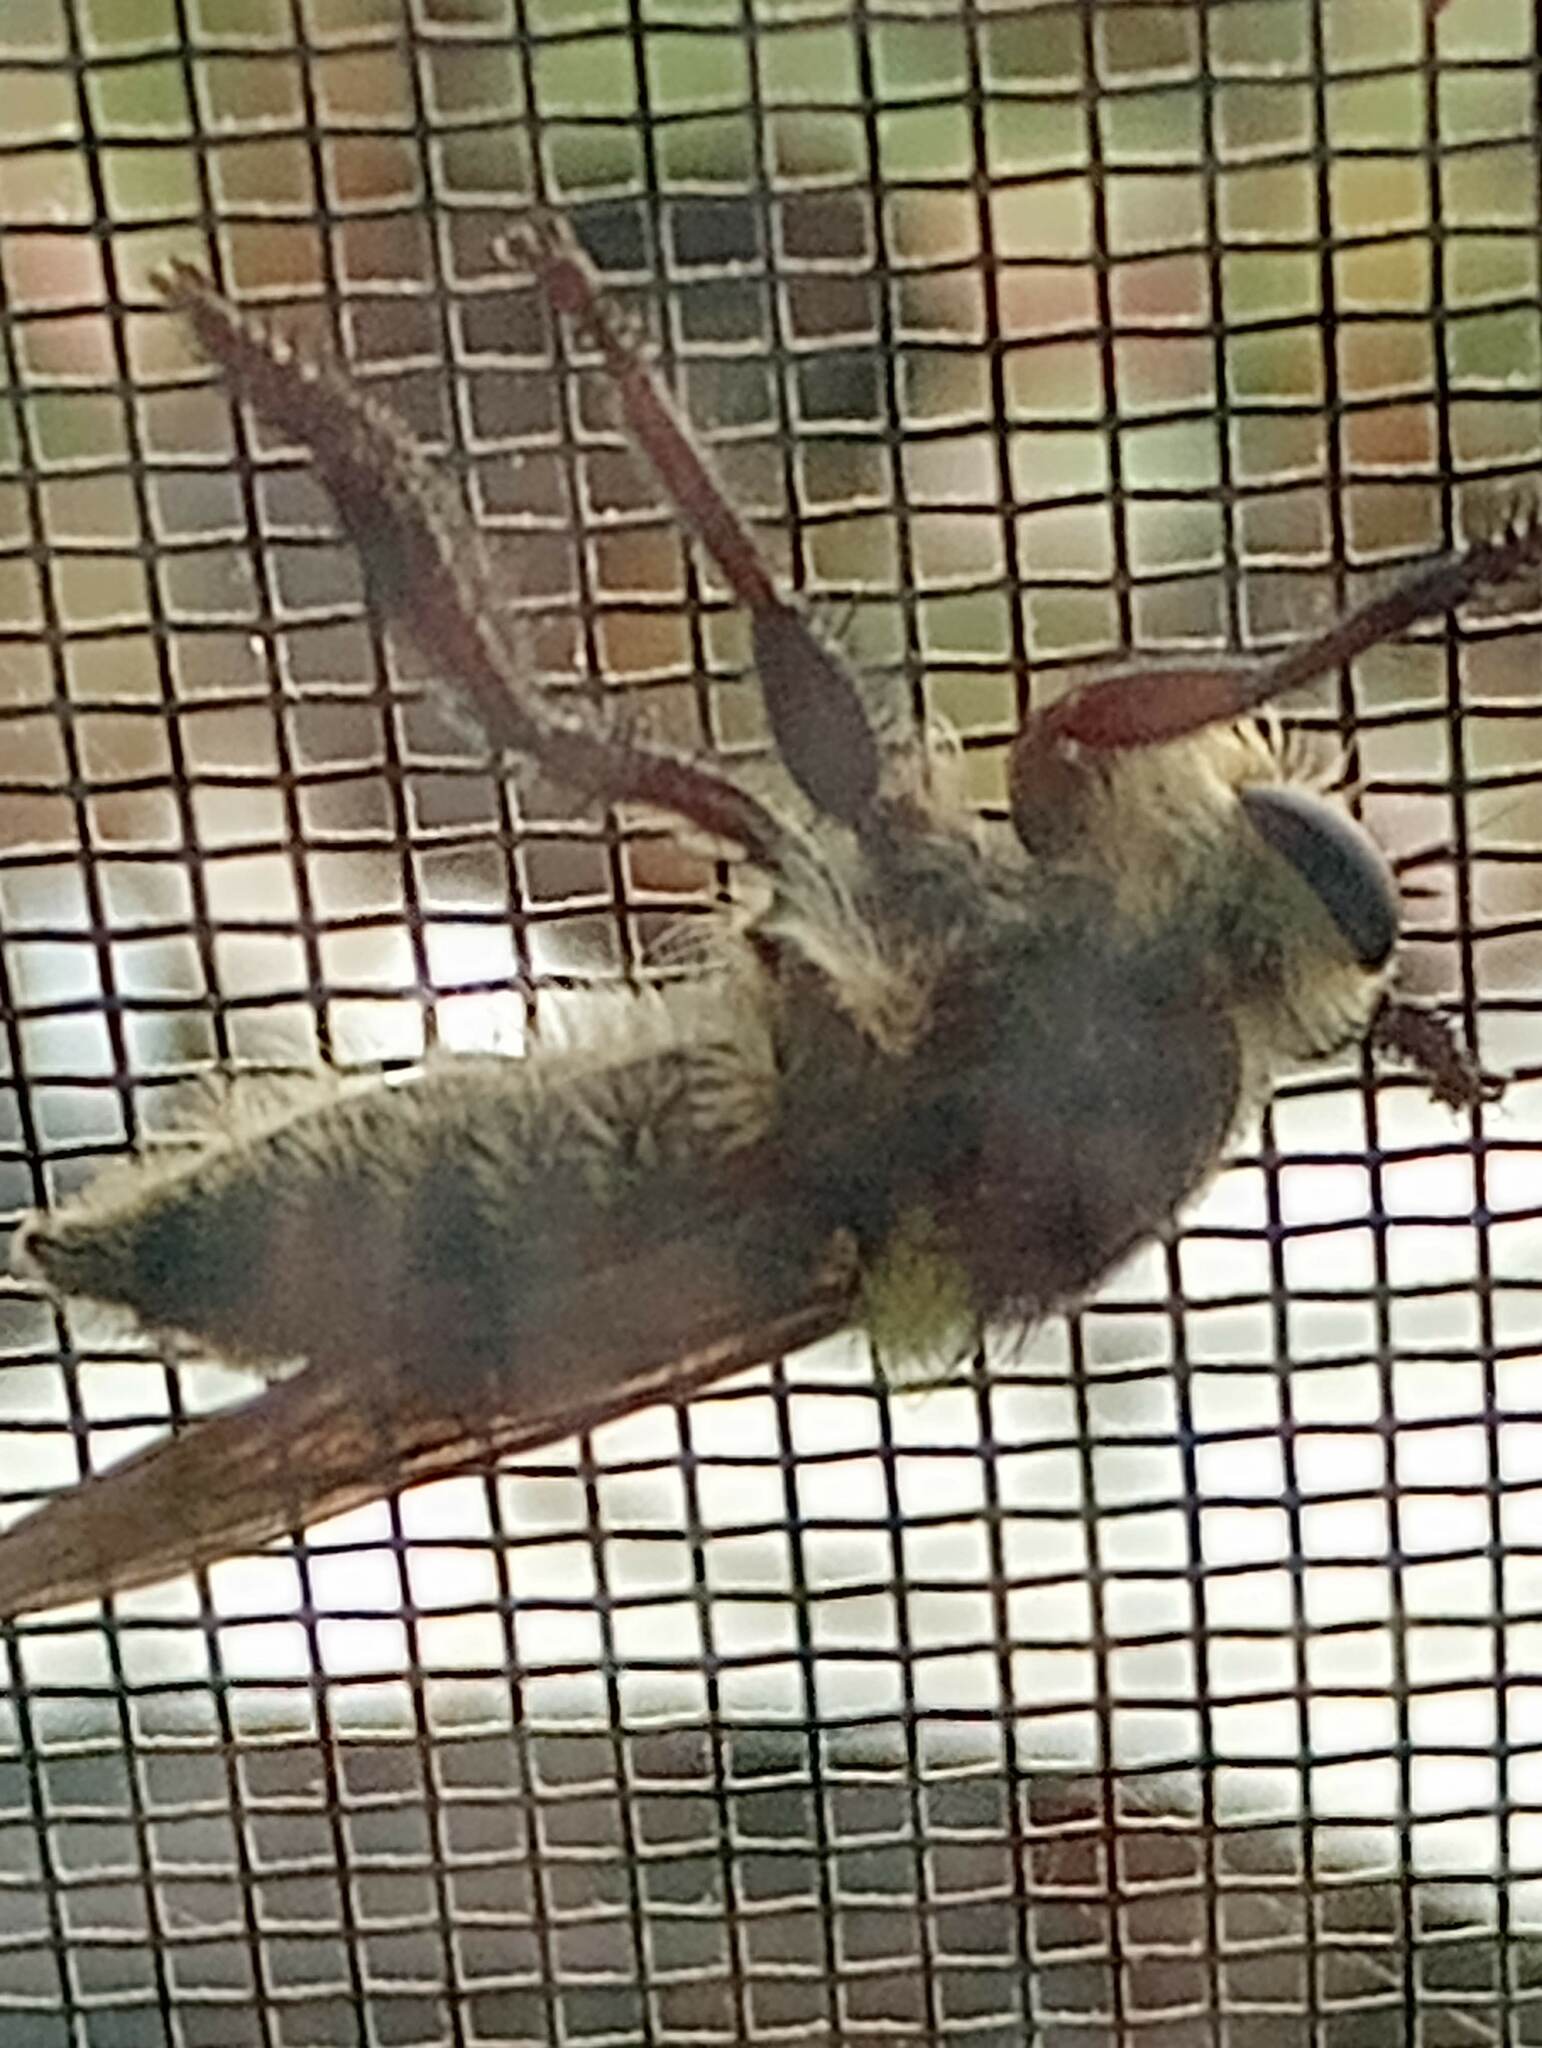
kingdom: Animalia
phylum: Arthropoda
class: Insecta
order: Diptera
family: Asilidae
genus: Mallophora
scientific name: Mallophora fautrix
